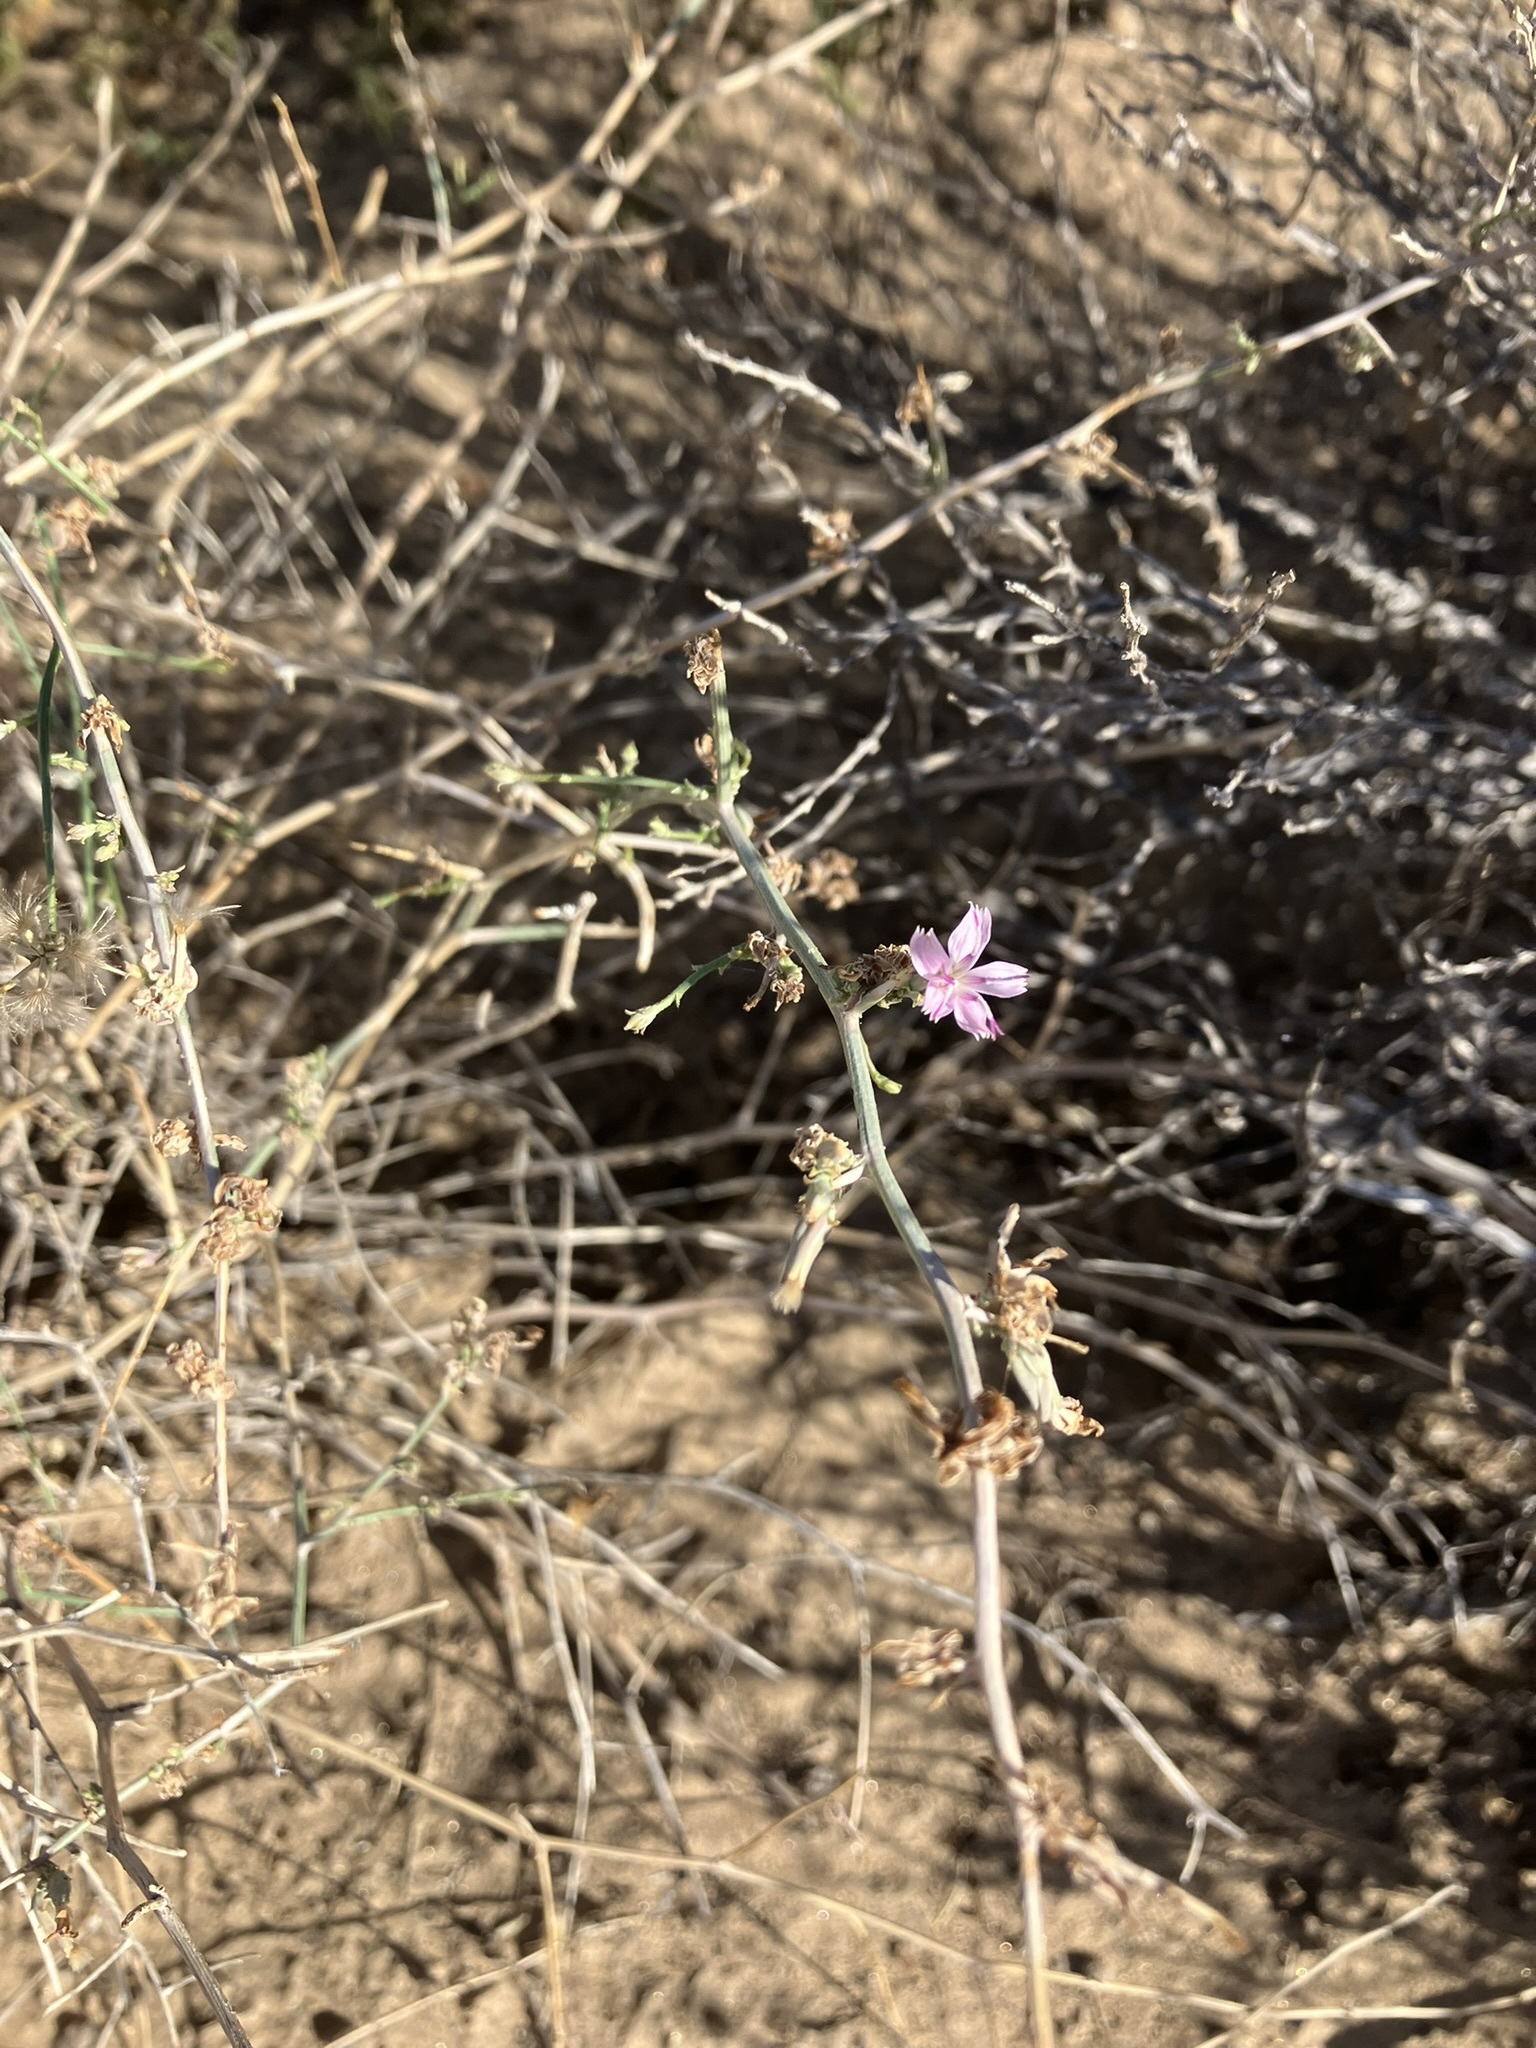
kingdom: Plantae
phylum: Tracheophyta
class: Magnoliopsida
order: Asterales
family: Asteraceae
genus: Stephanomeria
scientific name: Stephanomeria exigua
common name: Small wirelettuce
